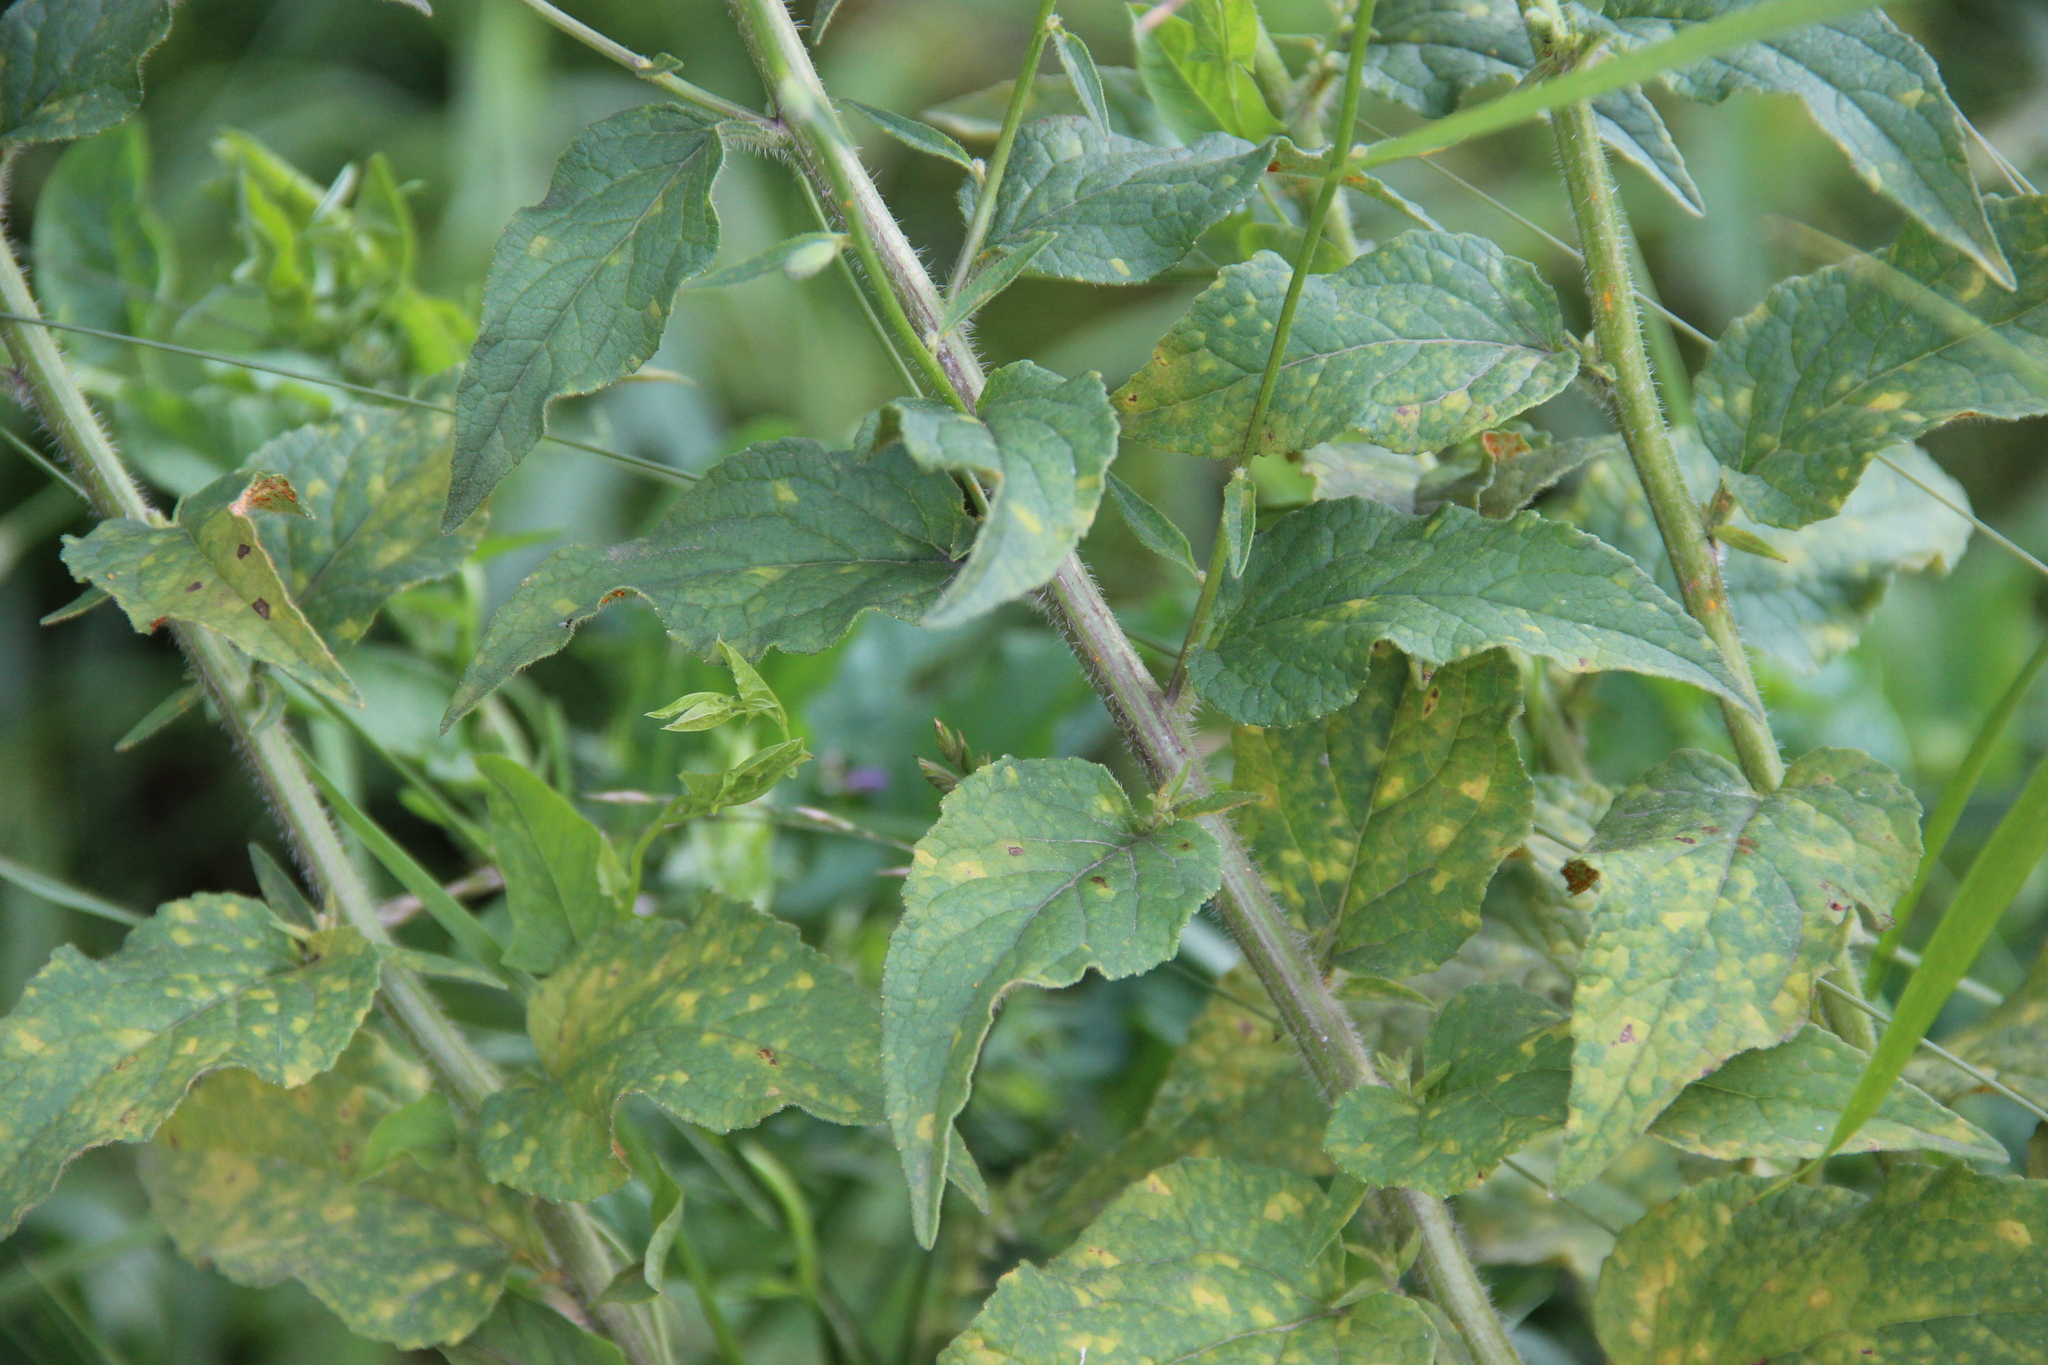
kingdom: Plantae
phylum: Tracheophyta
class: Magnoliopsida
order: Asterales
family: Campanulaceae
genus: Campanula
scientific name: Campanula rapunculoides
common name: Creeping bellflower
